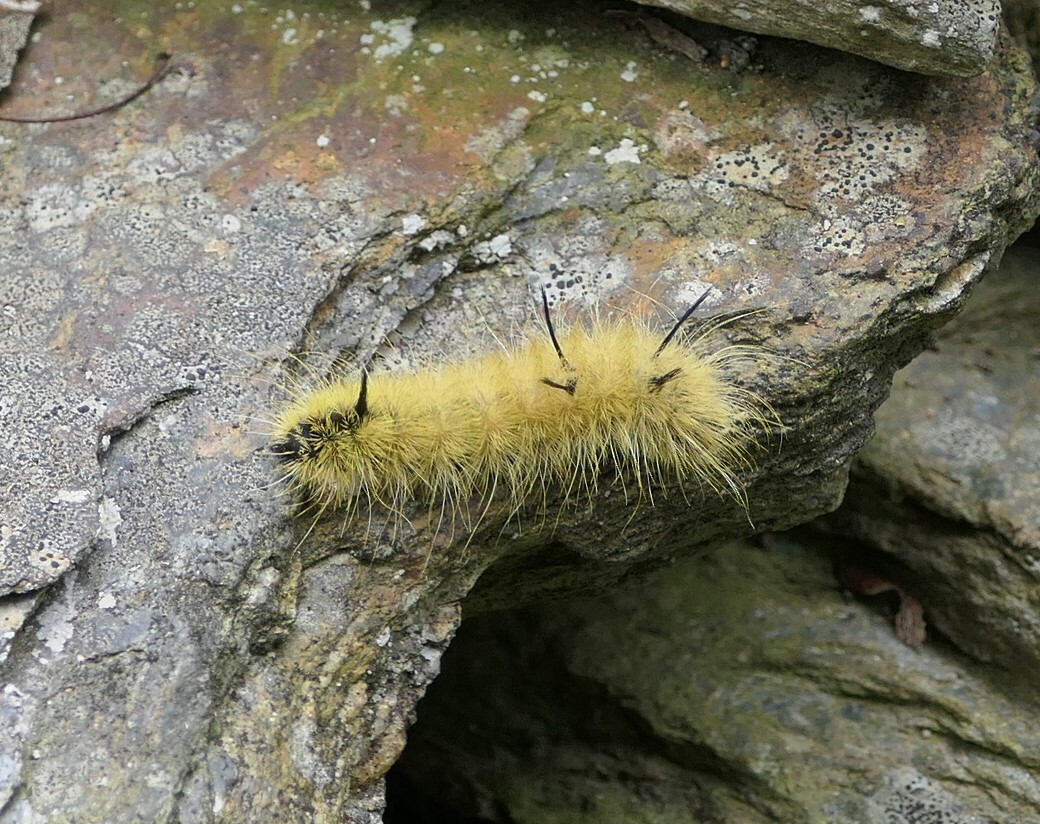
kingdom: Animalia
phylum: Arthropoda
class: Insecta
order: Lepidoptera
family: Noctuidae
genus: Acronicta
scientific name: Acronicta americana
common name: American dagger
